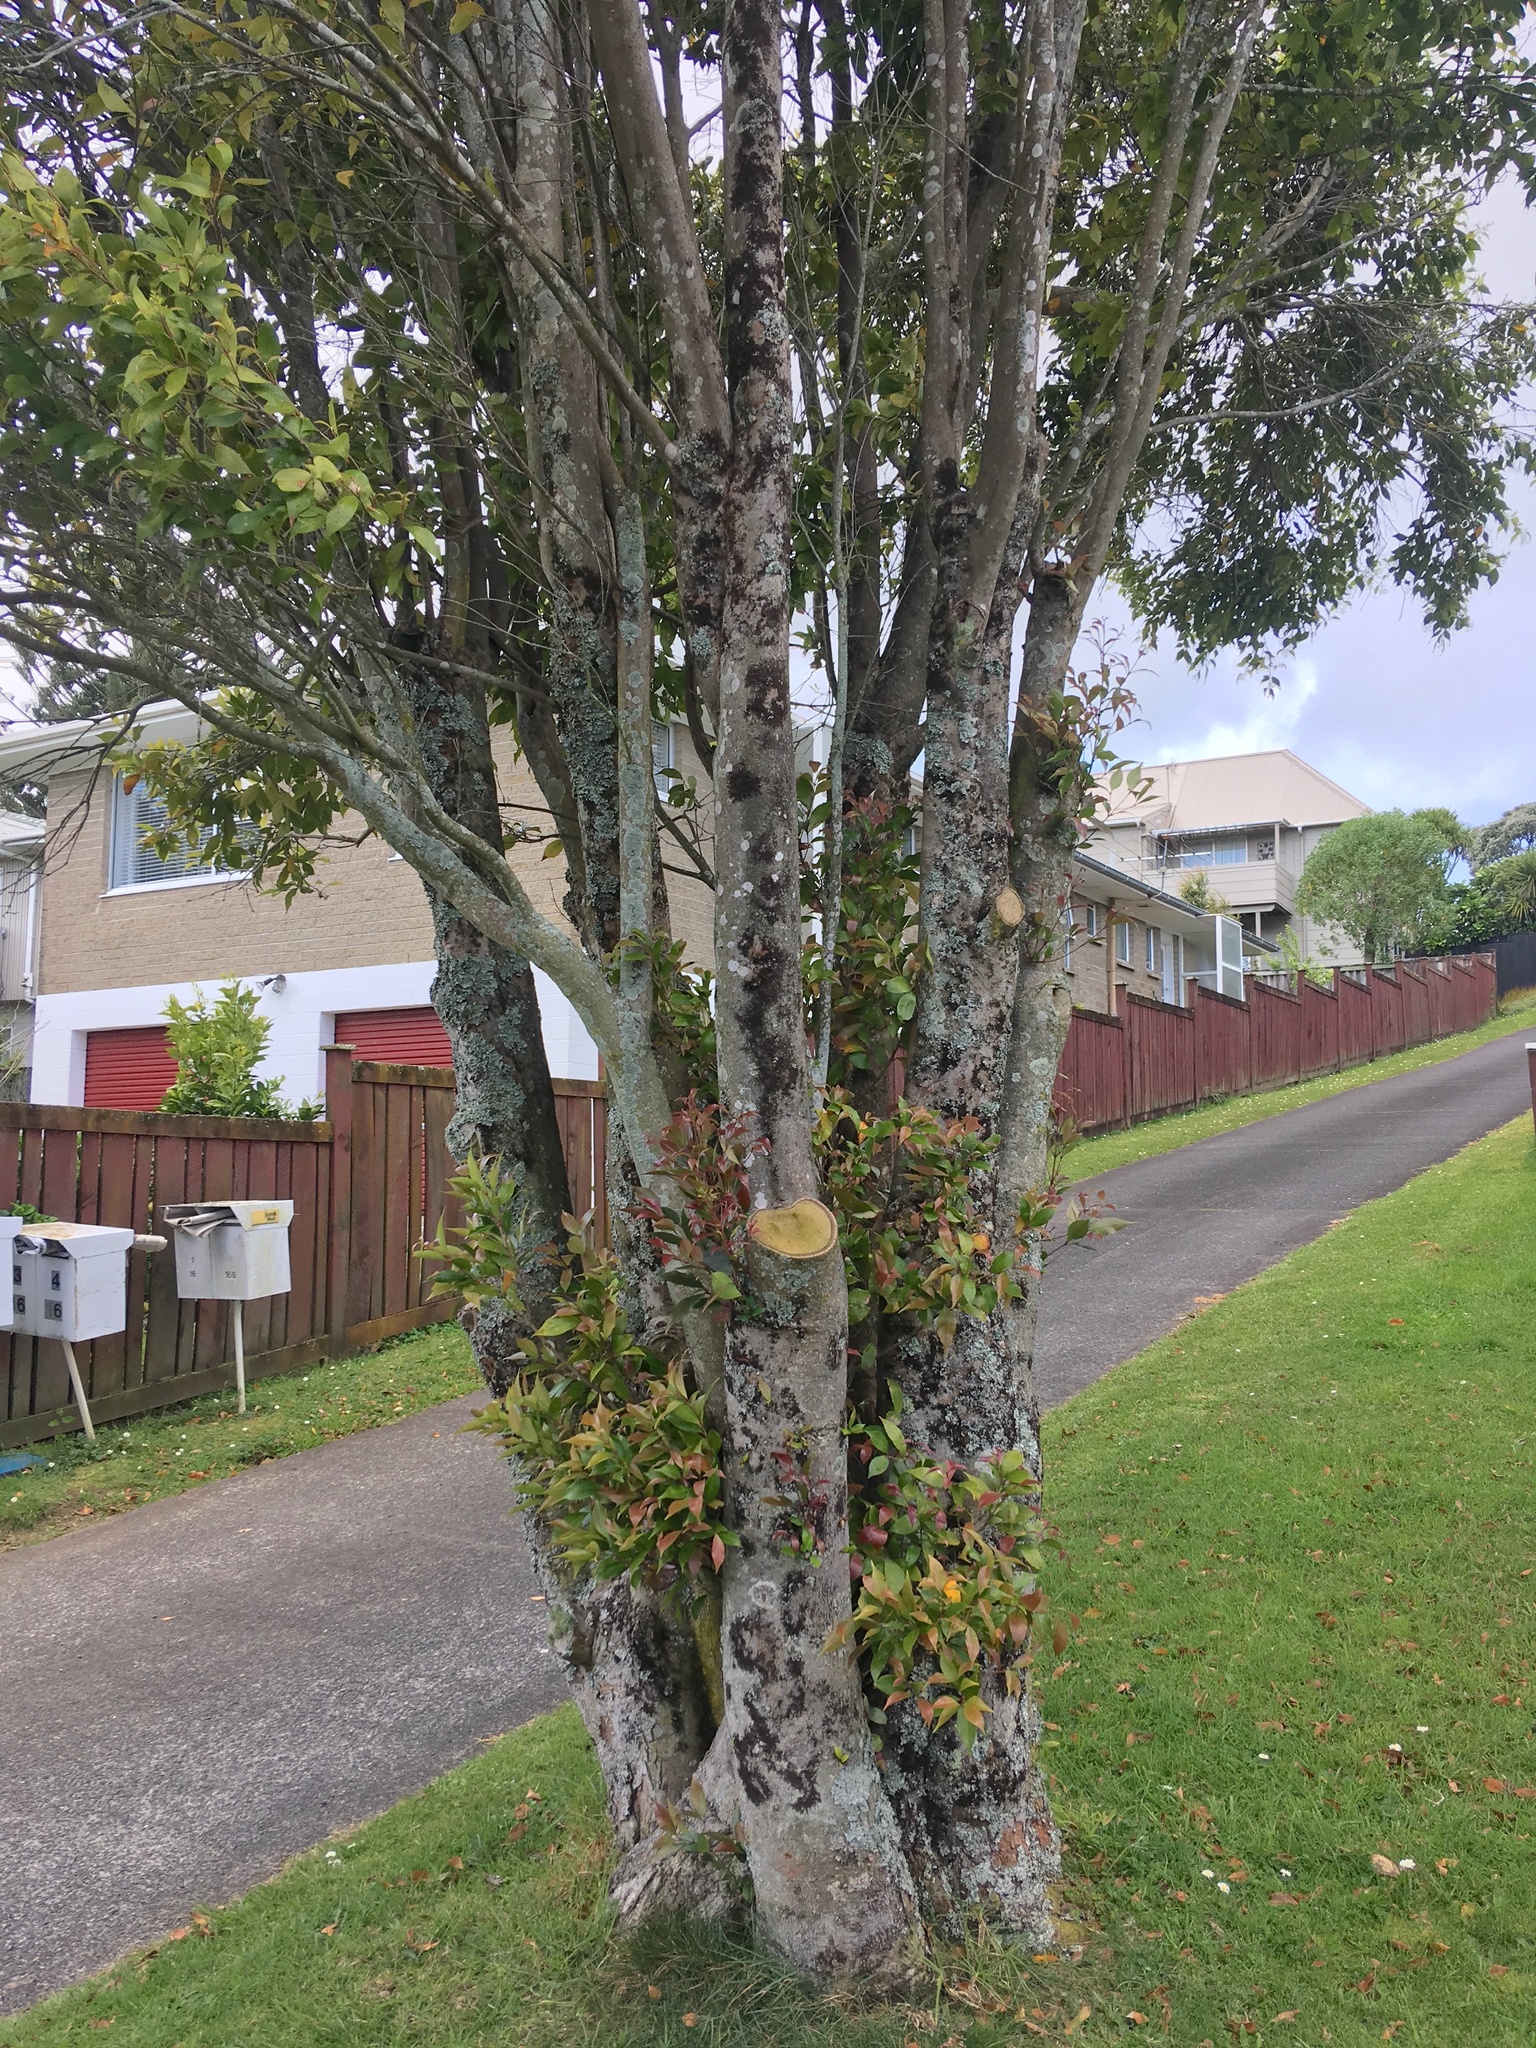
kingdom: Plantae
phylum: Tracheophyta
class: Magnoliopsida
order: Myrtales
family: Myrtaceae
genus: Syzygium
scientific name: Syzygium smithii
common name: Lilly-pilly
